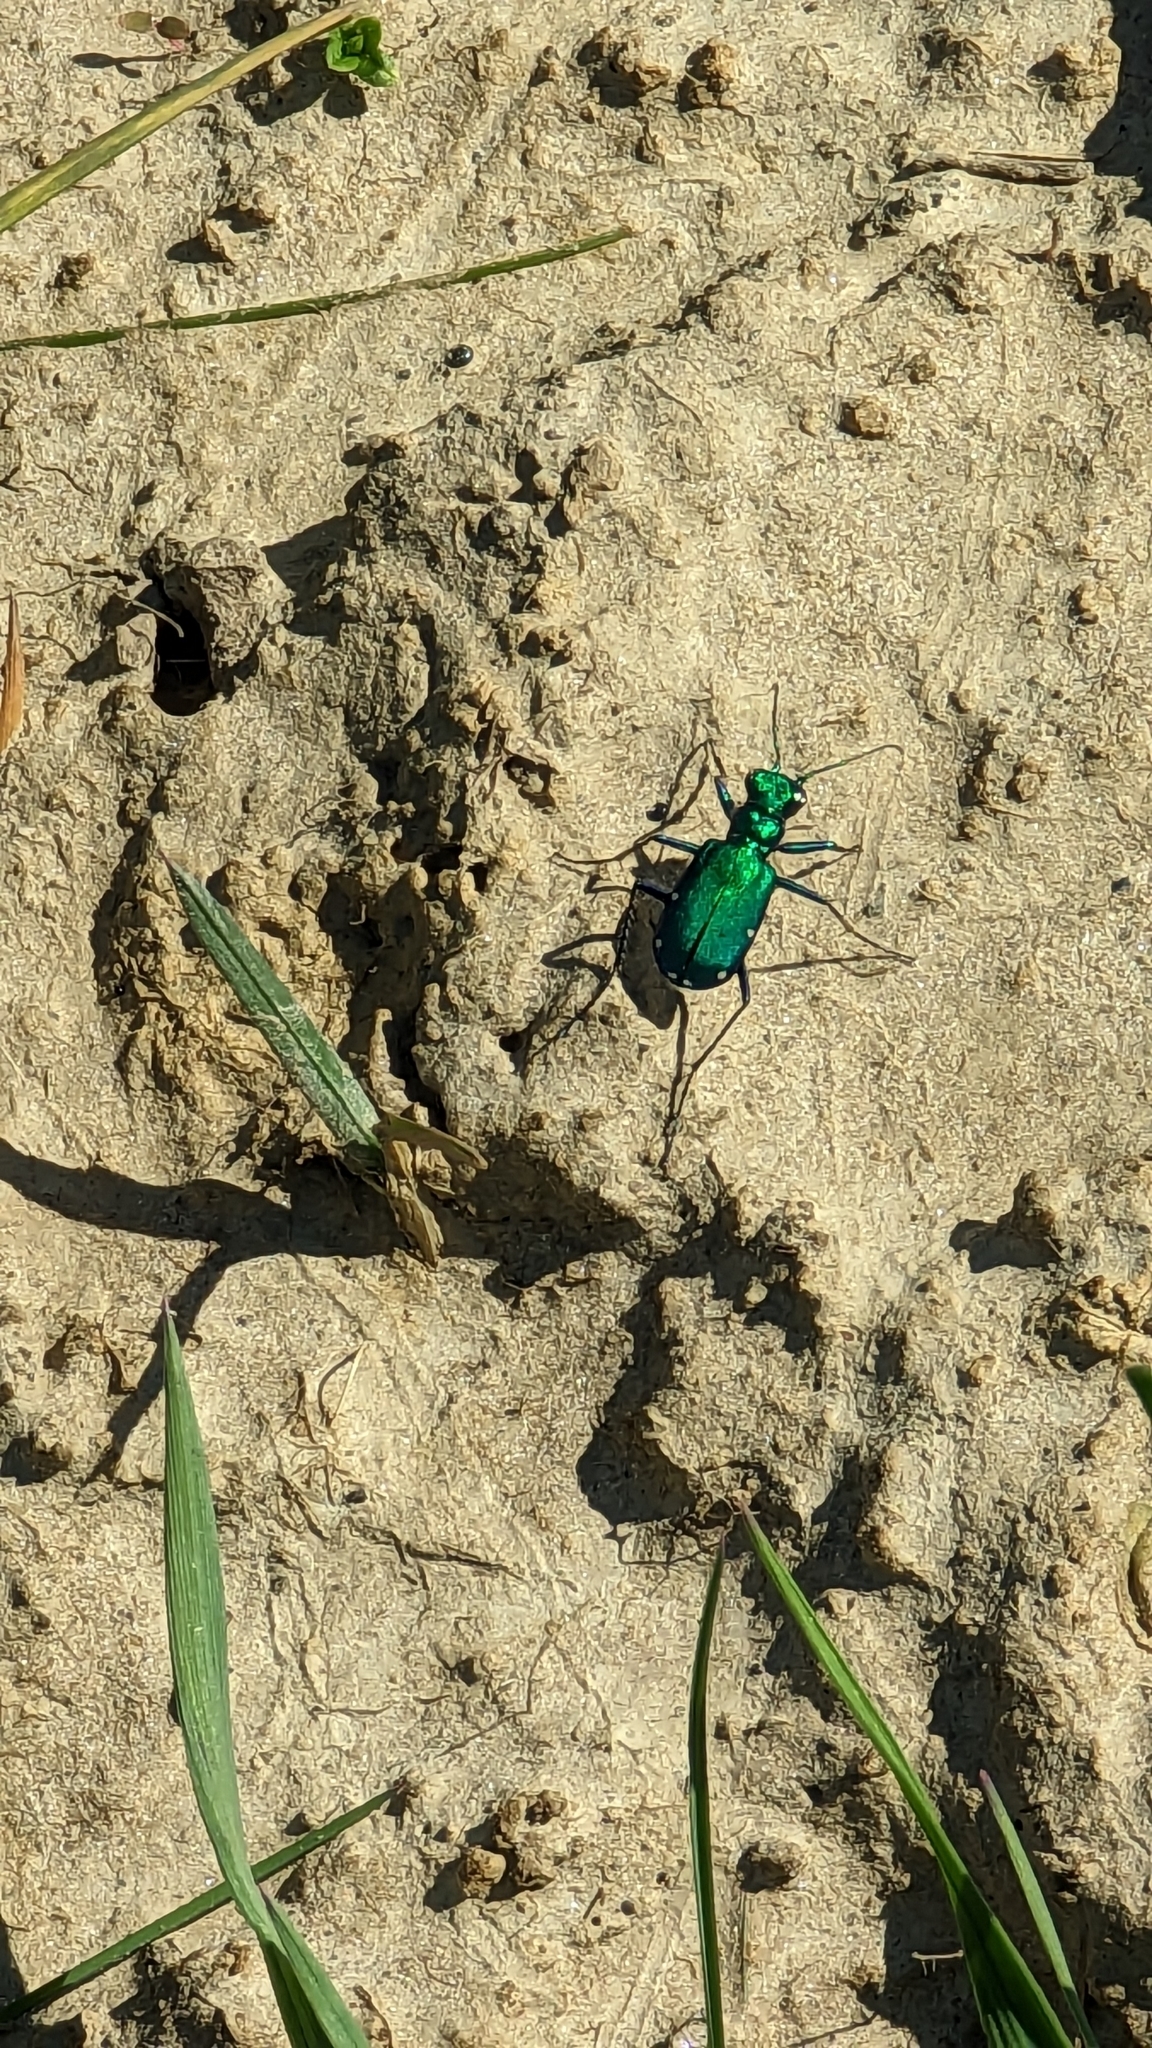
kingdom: Animalia
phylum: Arthropoda
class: Insecta
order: Coleoptera
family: Carabidae
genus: Cicindela
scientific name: Cicindela sexguttata
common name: Six-spotted tiger beetle
